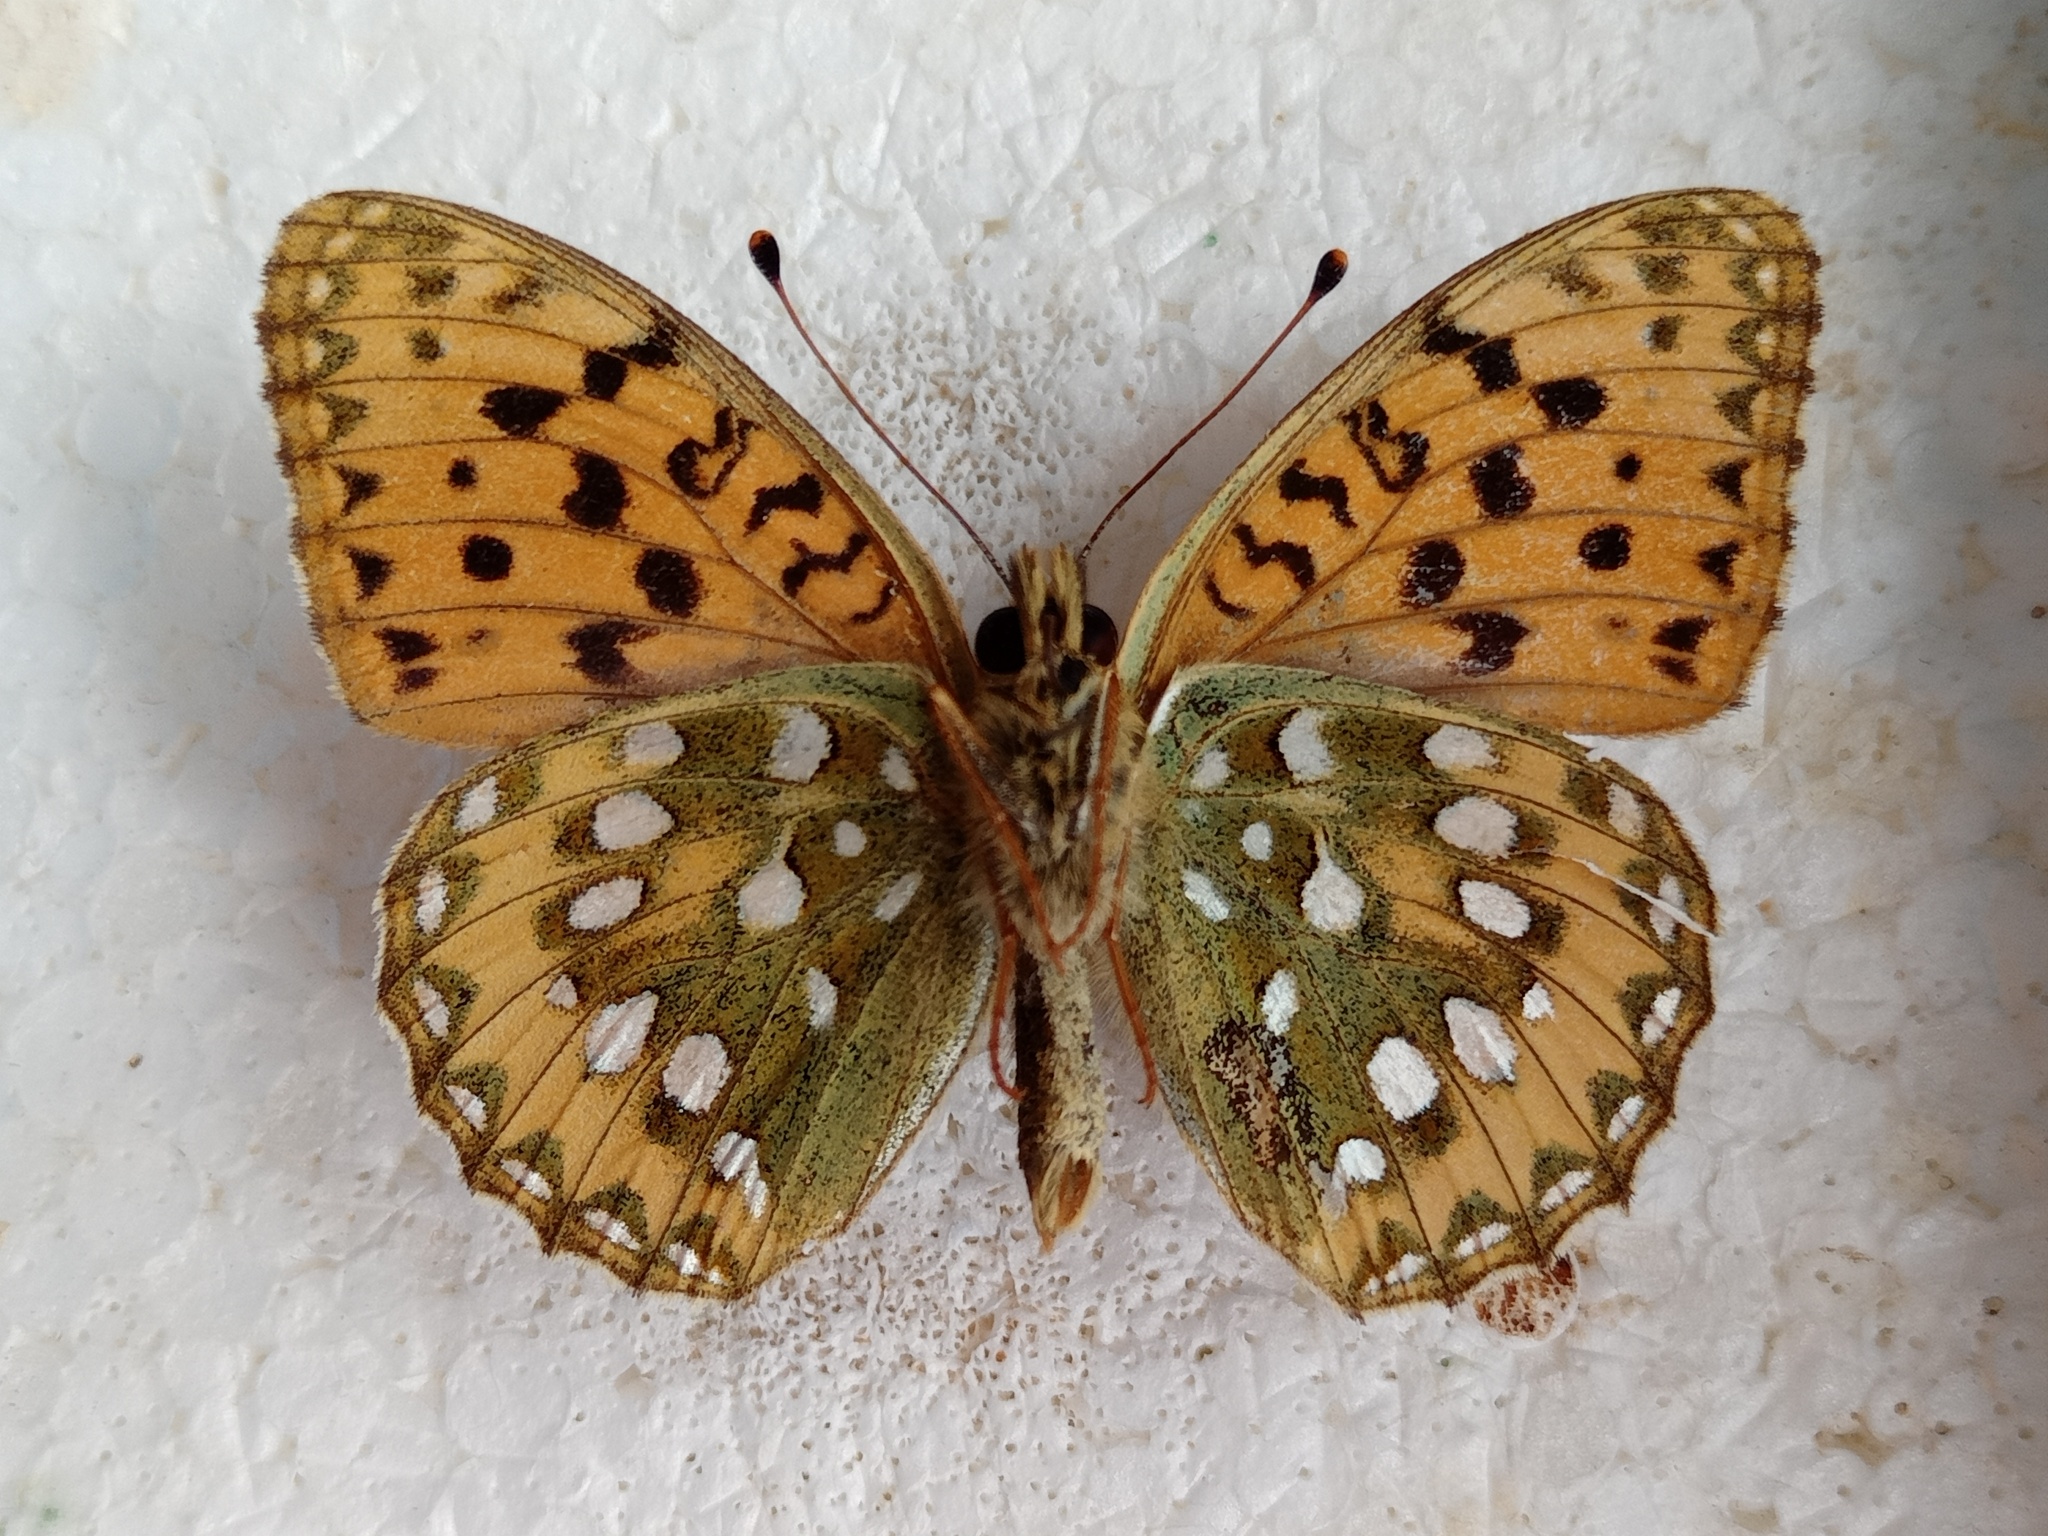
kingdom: Animalia
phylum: Arthropoda
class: Insecta
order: Lepidoptera
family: Nymphalidae
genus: Speyeria
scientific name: Speyeria aglaja
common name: Dark green fritillary
